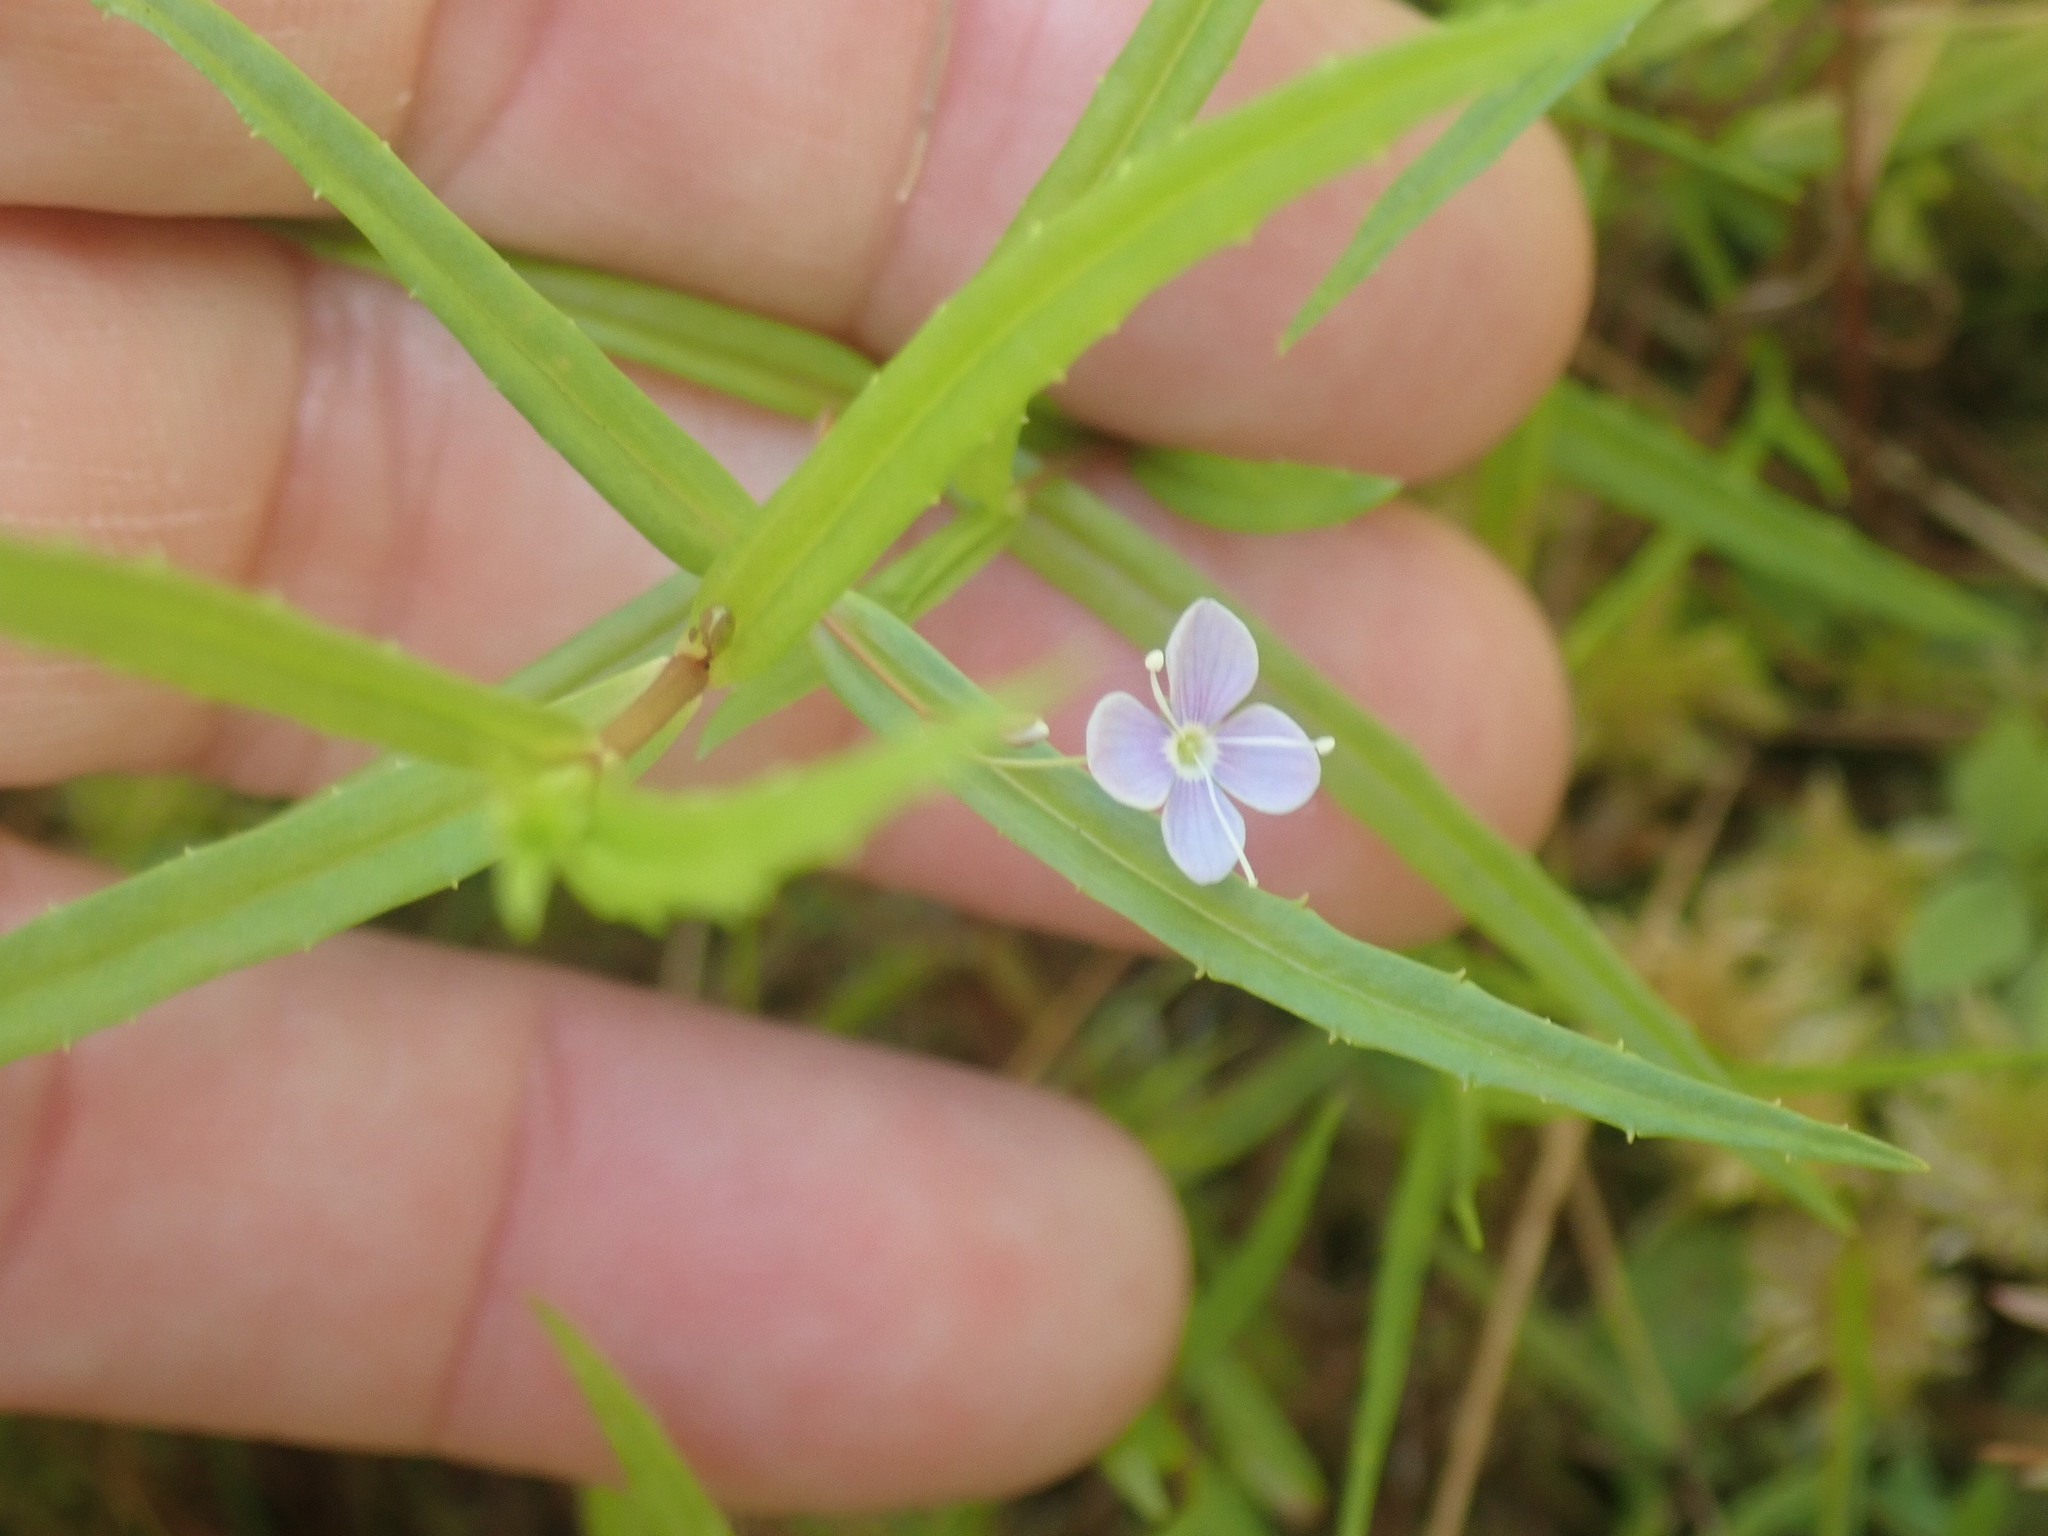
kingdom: Plantae
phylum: Tracheophyta
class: Magnoliopsida
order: Lamiales
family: Plantaginaceae
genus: Veronica
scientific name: Veronica scutellata
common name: Marsh speedwell
